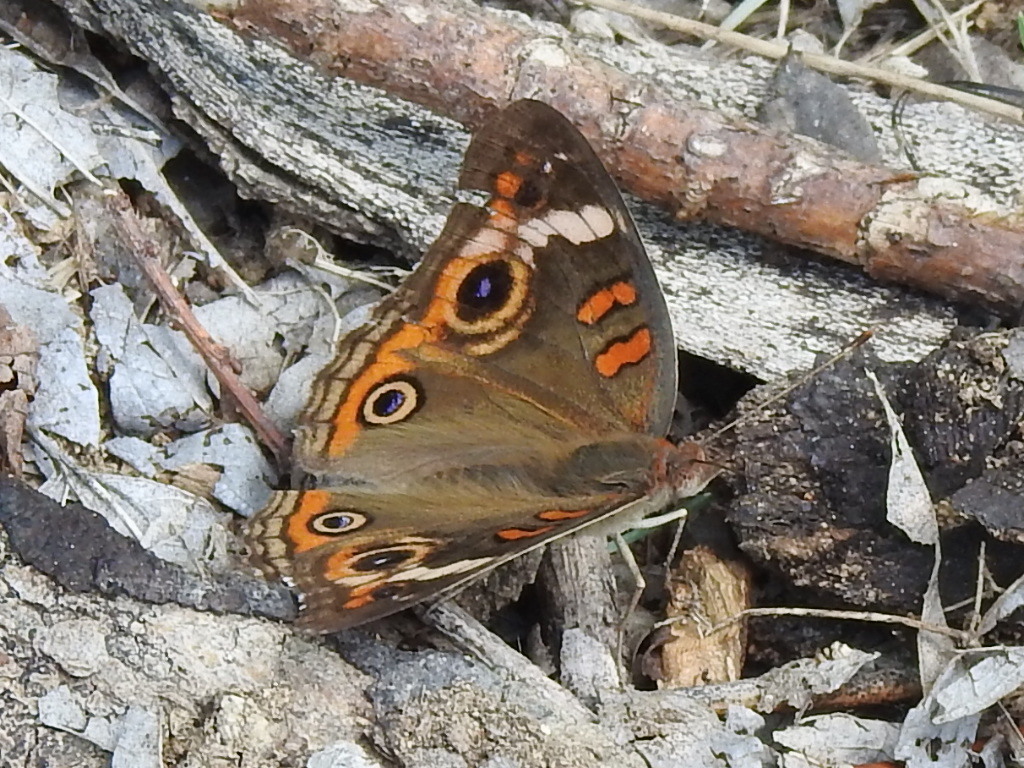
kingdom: Animalia
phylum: Arthropoda
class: Insecta
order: Lepidoptera
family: Nymphalidae
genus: Junonia
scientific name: Junonia coenia
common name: Common buckeye
